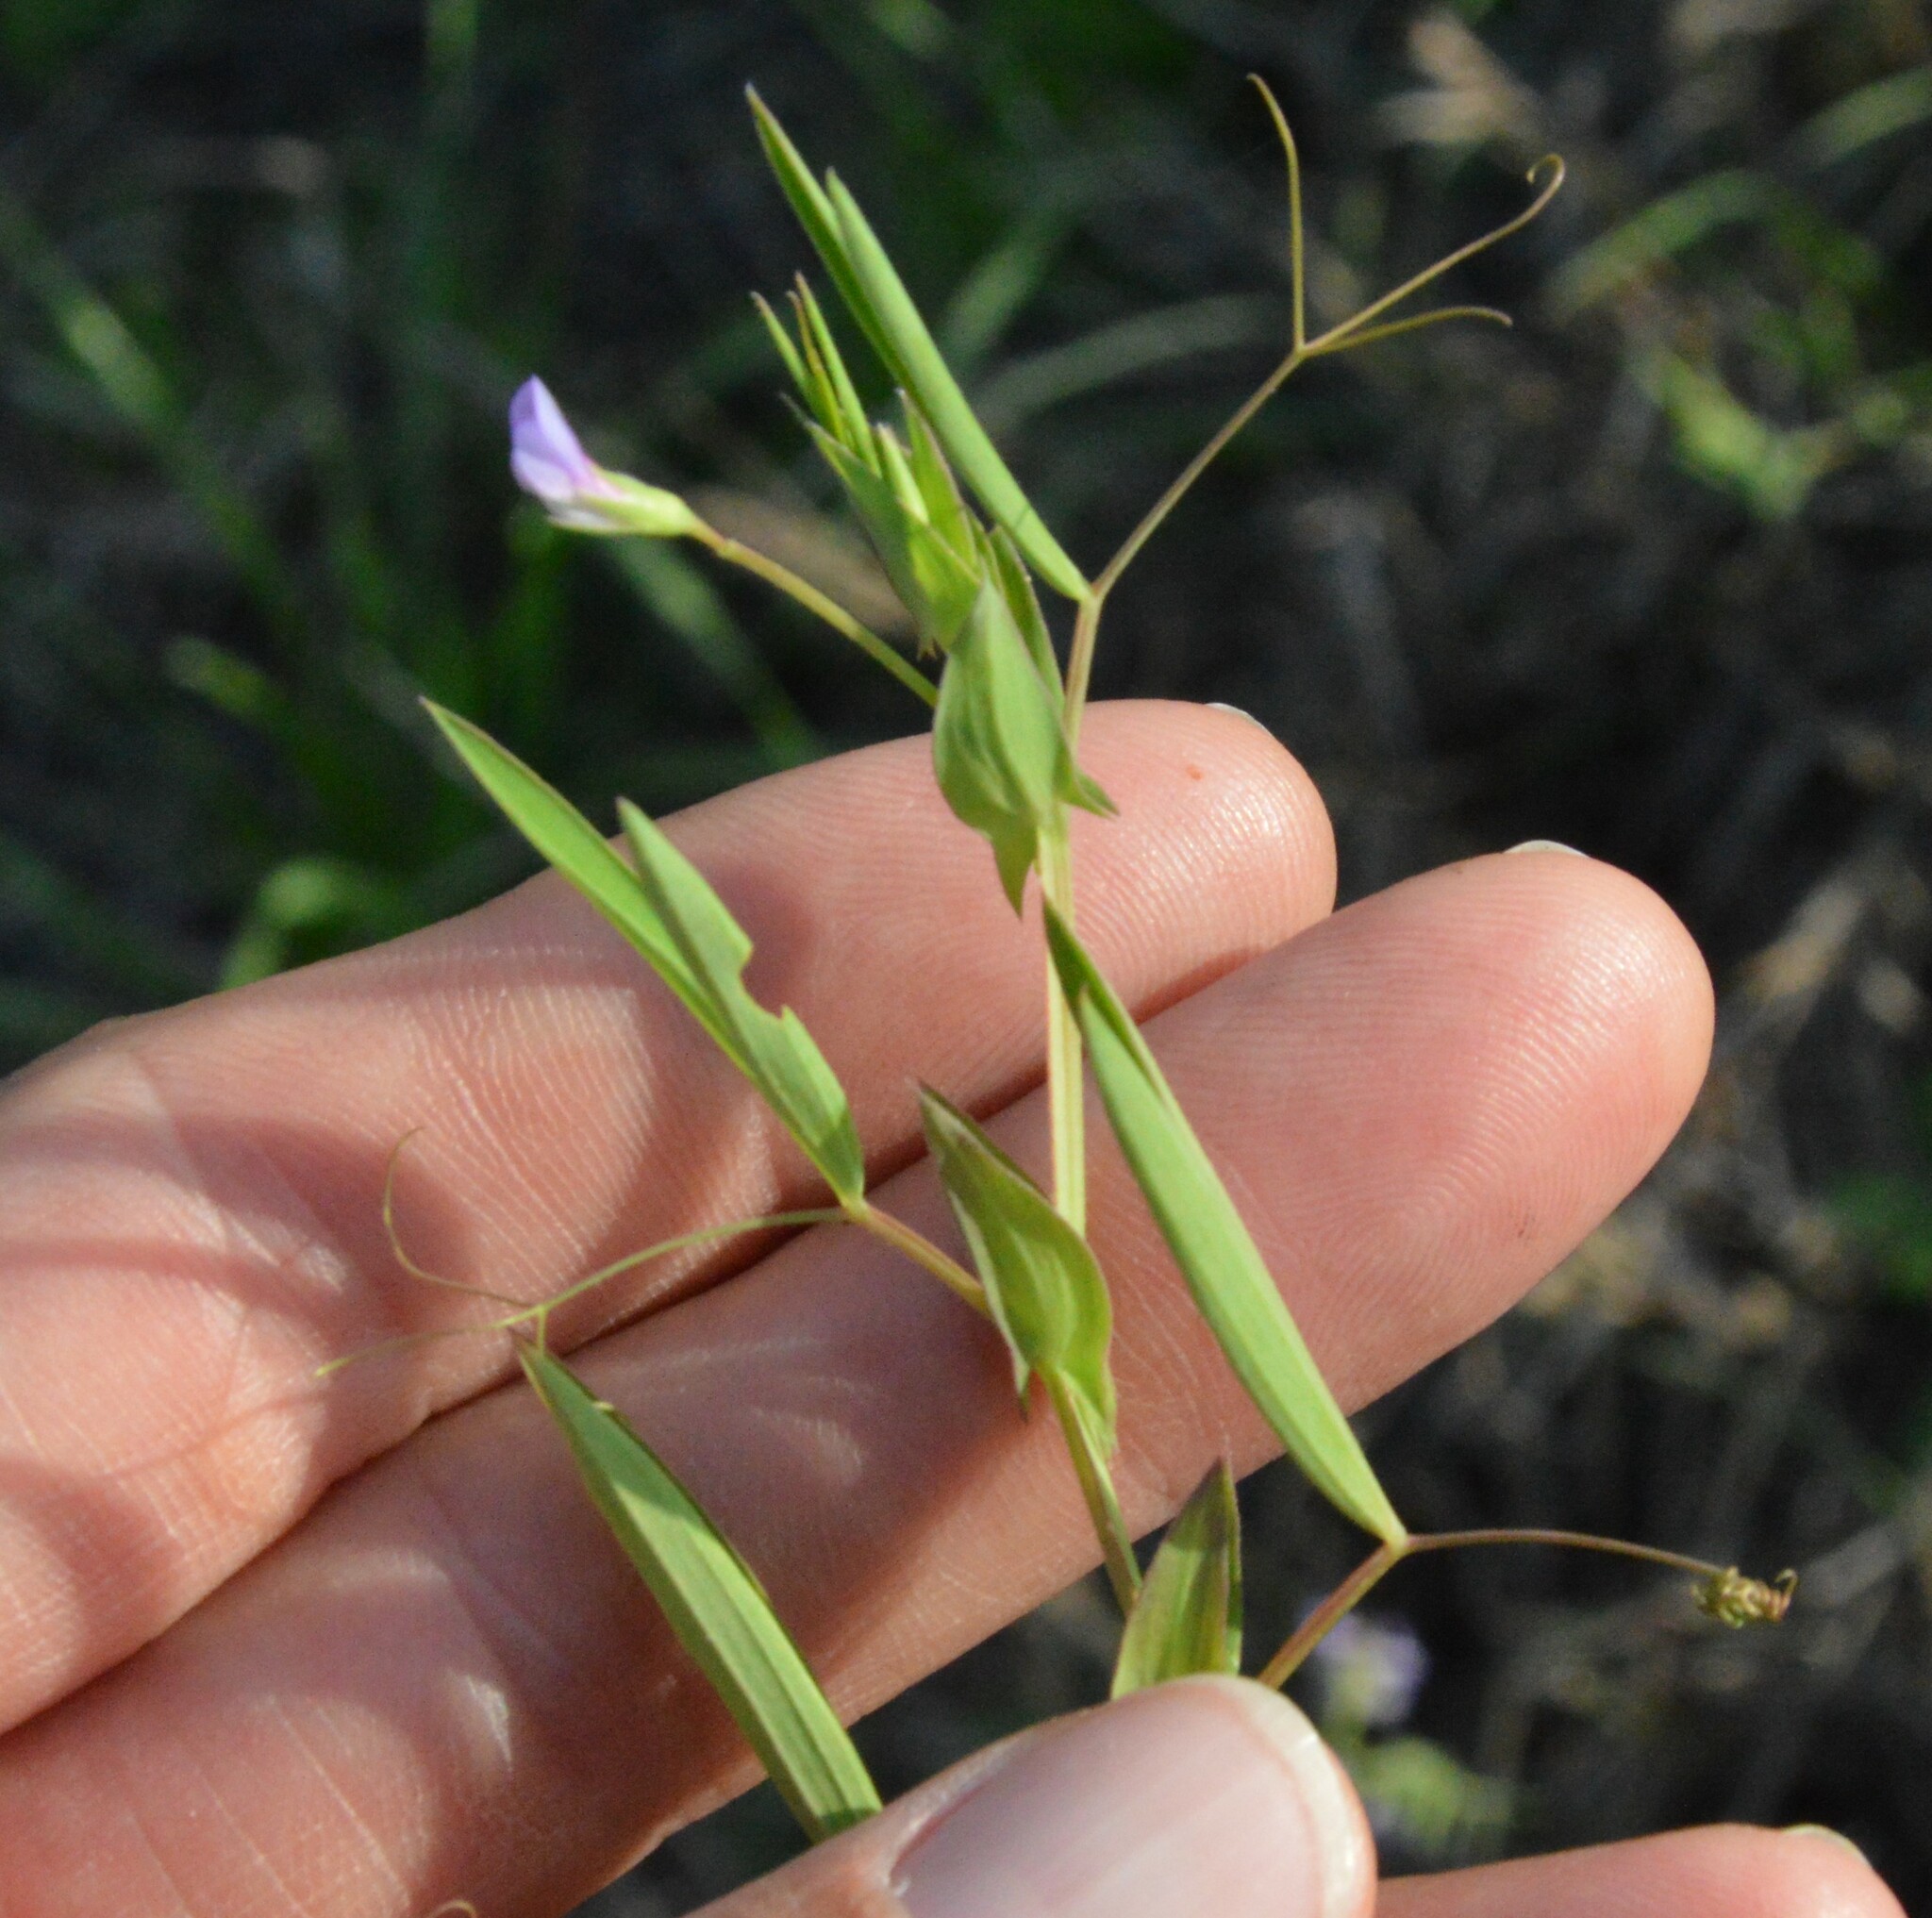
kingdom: Plantae
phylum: Tracheophyta
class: Magnoliopsida
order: Fabales
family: Fabaceae
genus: Lathyrus
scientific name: Lathyrus pusillus
